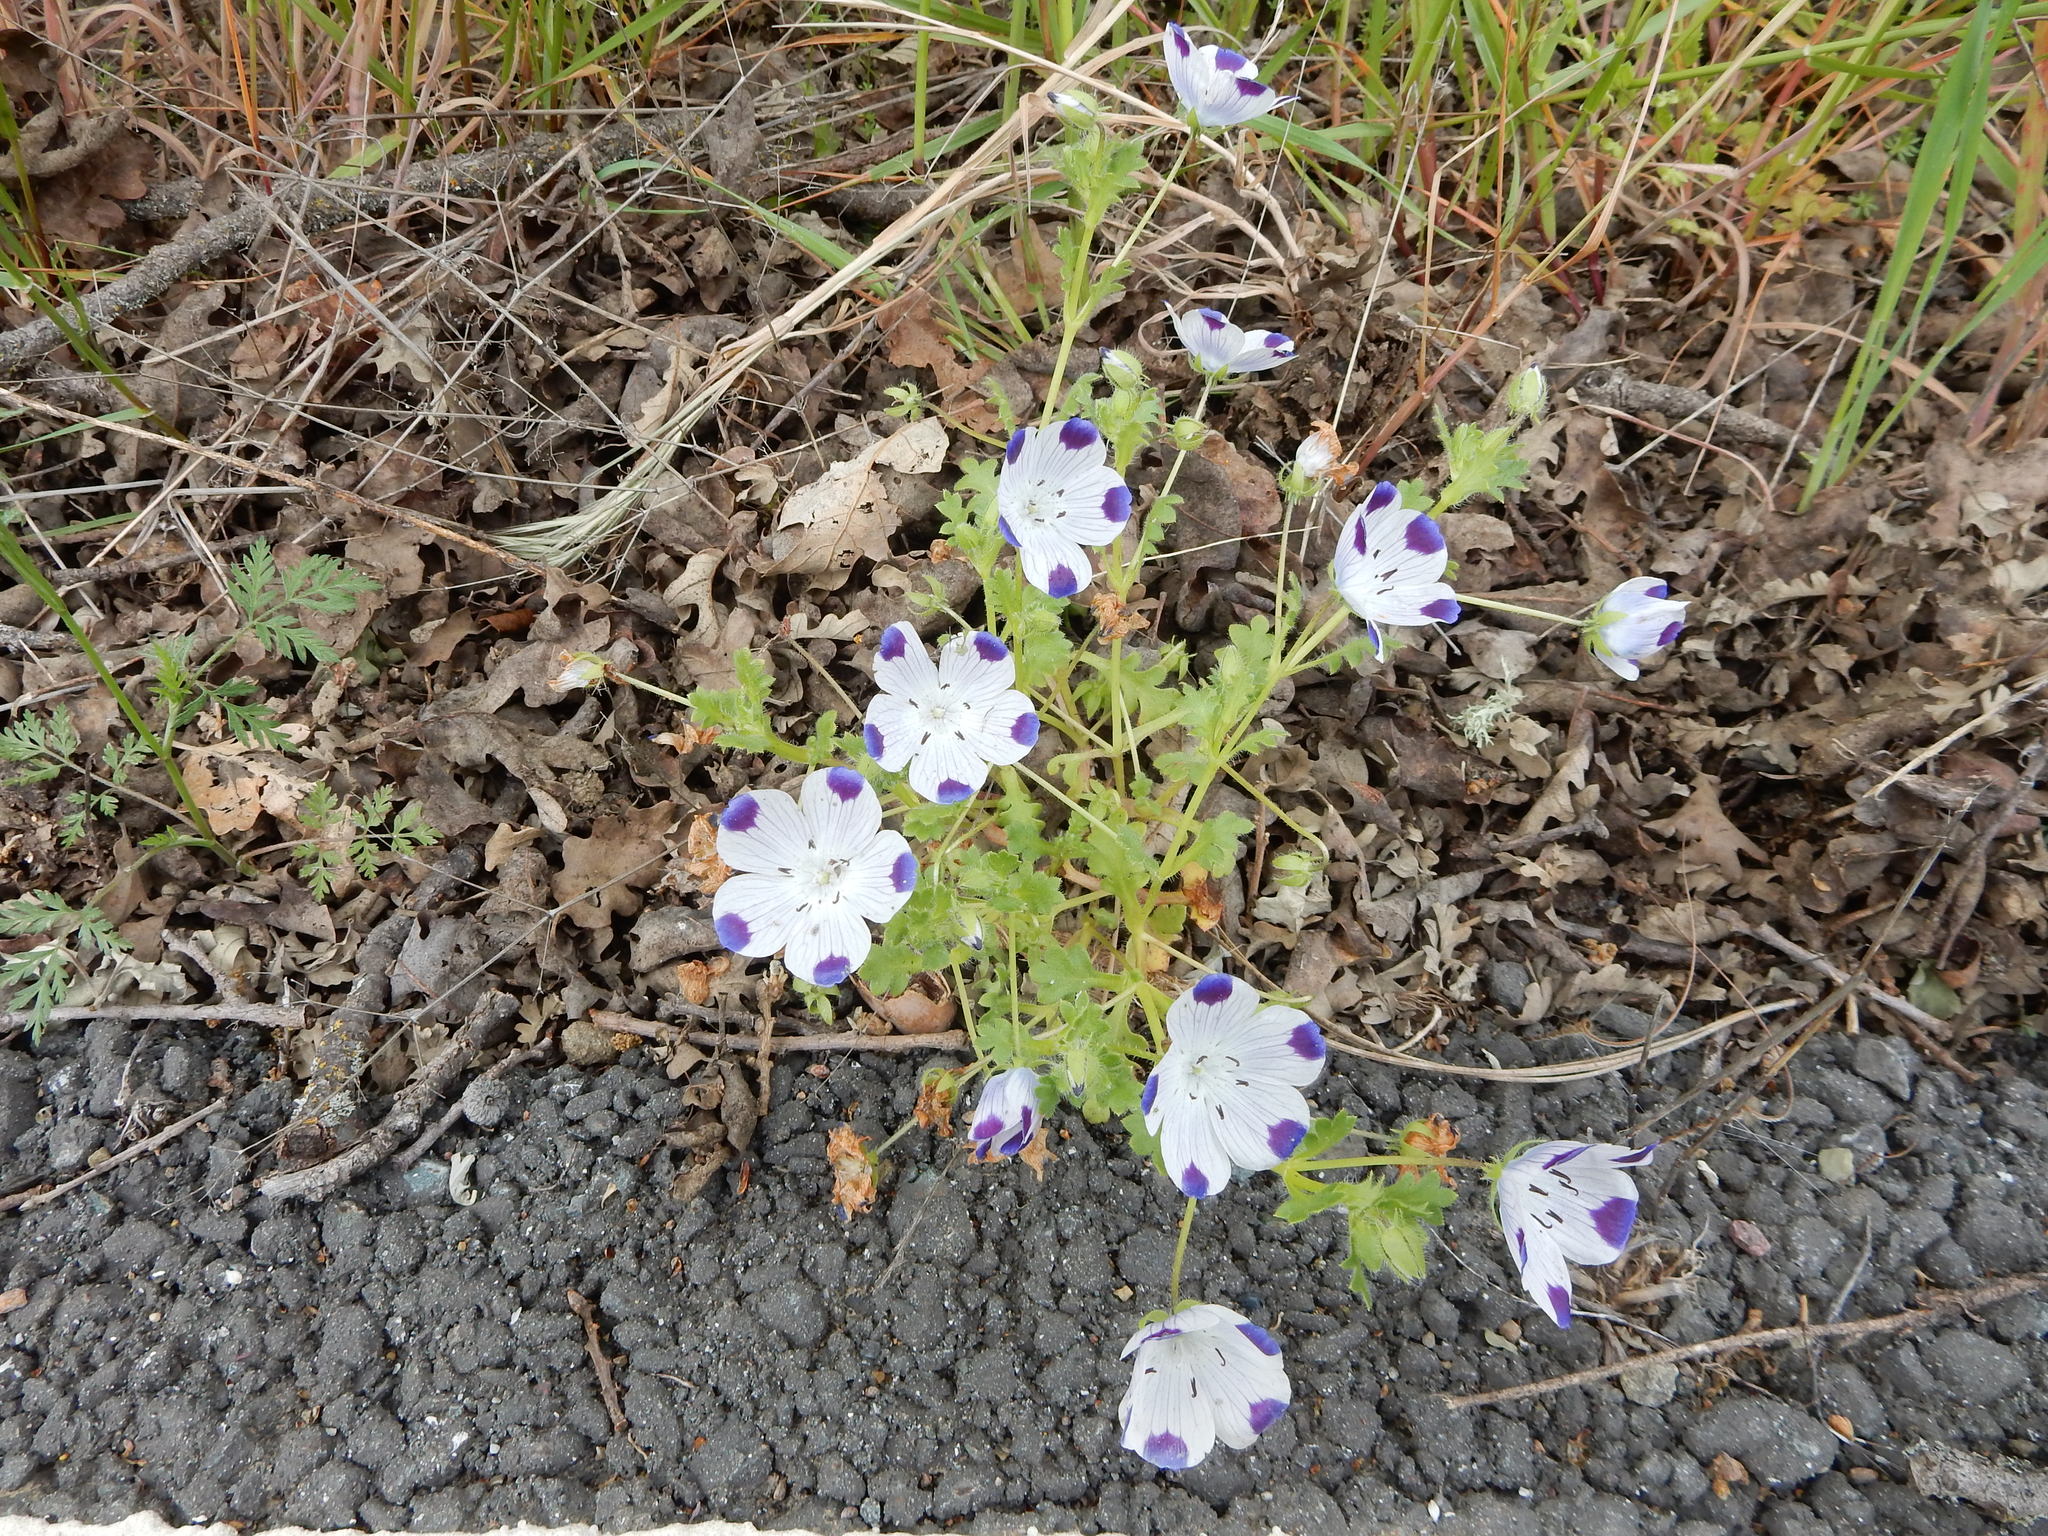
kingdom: Plantae
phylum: Tracheophyta
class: Magnoliopsida
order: Boraginales
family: Hydrophyllaceae
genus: Nemophila
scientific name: Nemophila maculata
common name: Fivespot
